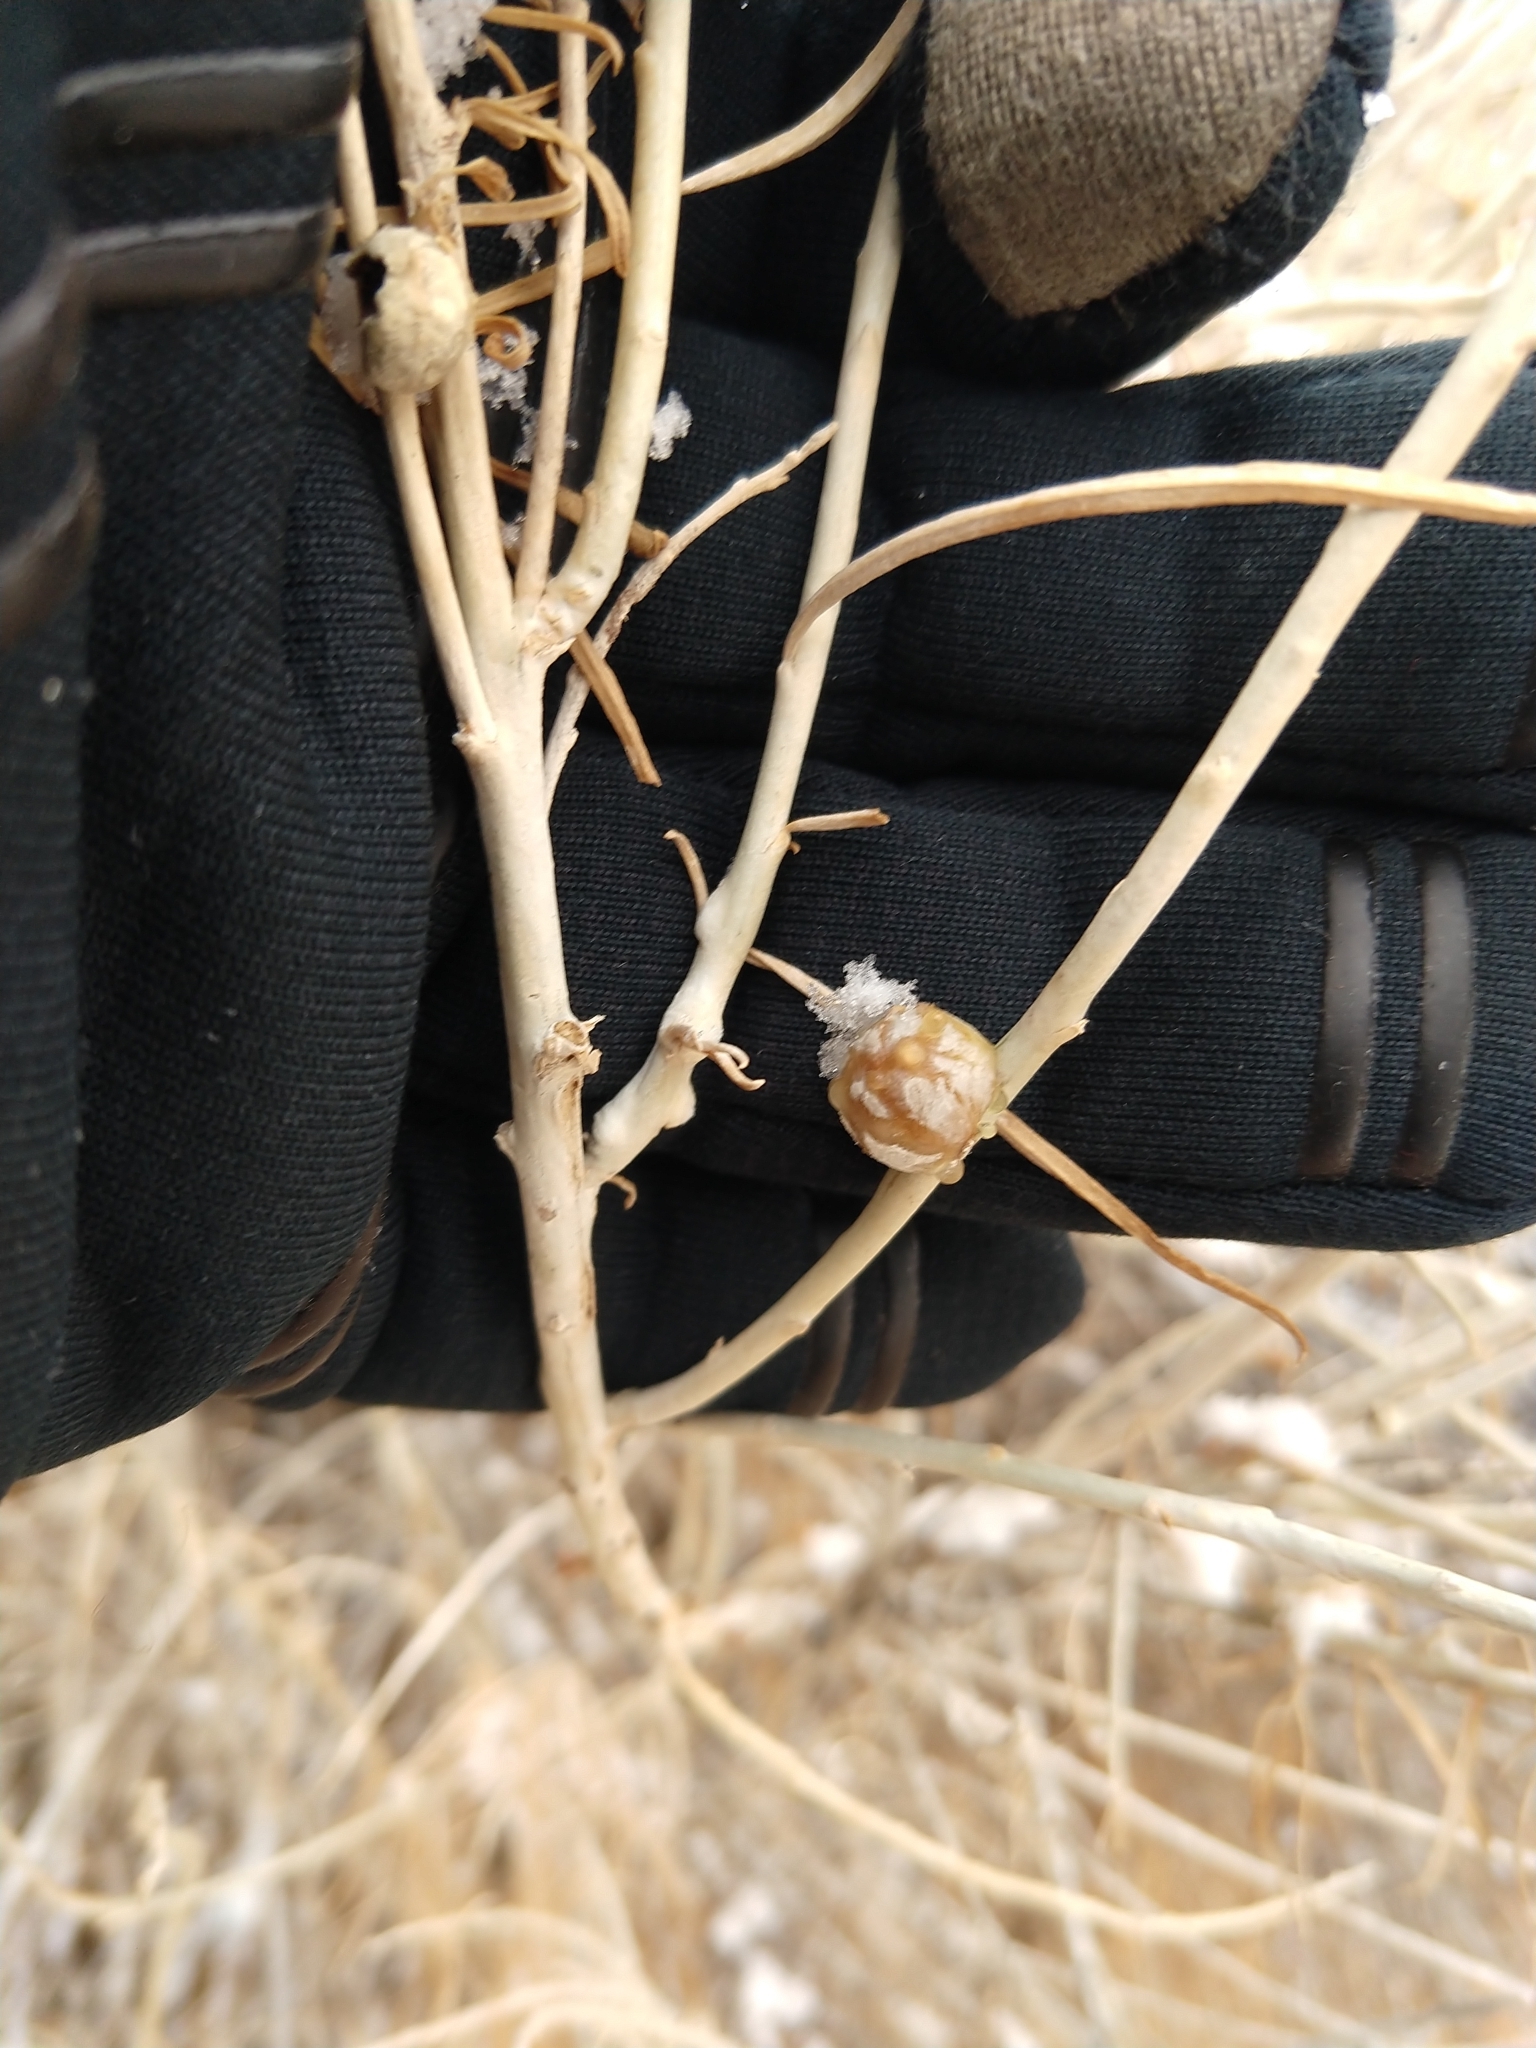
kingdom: Animalia
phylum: Arthropoda
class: Insecta
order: Diptera
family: Tephritidae
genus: Aciurina
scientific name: Aciurina trixa
